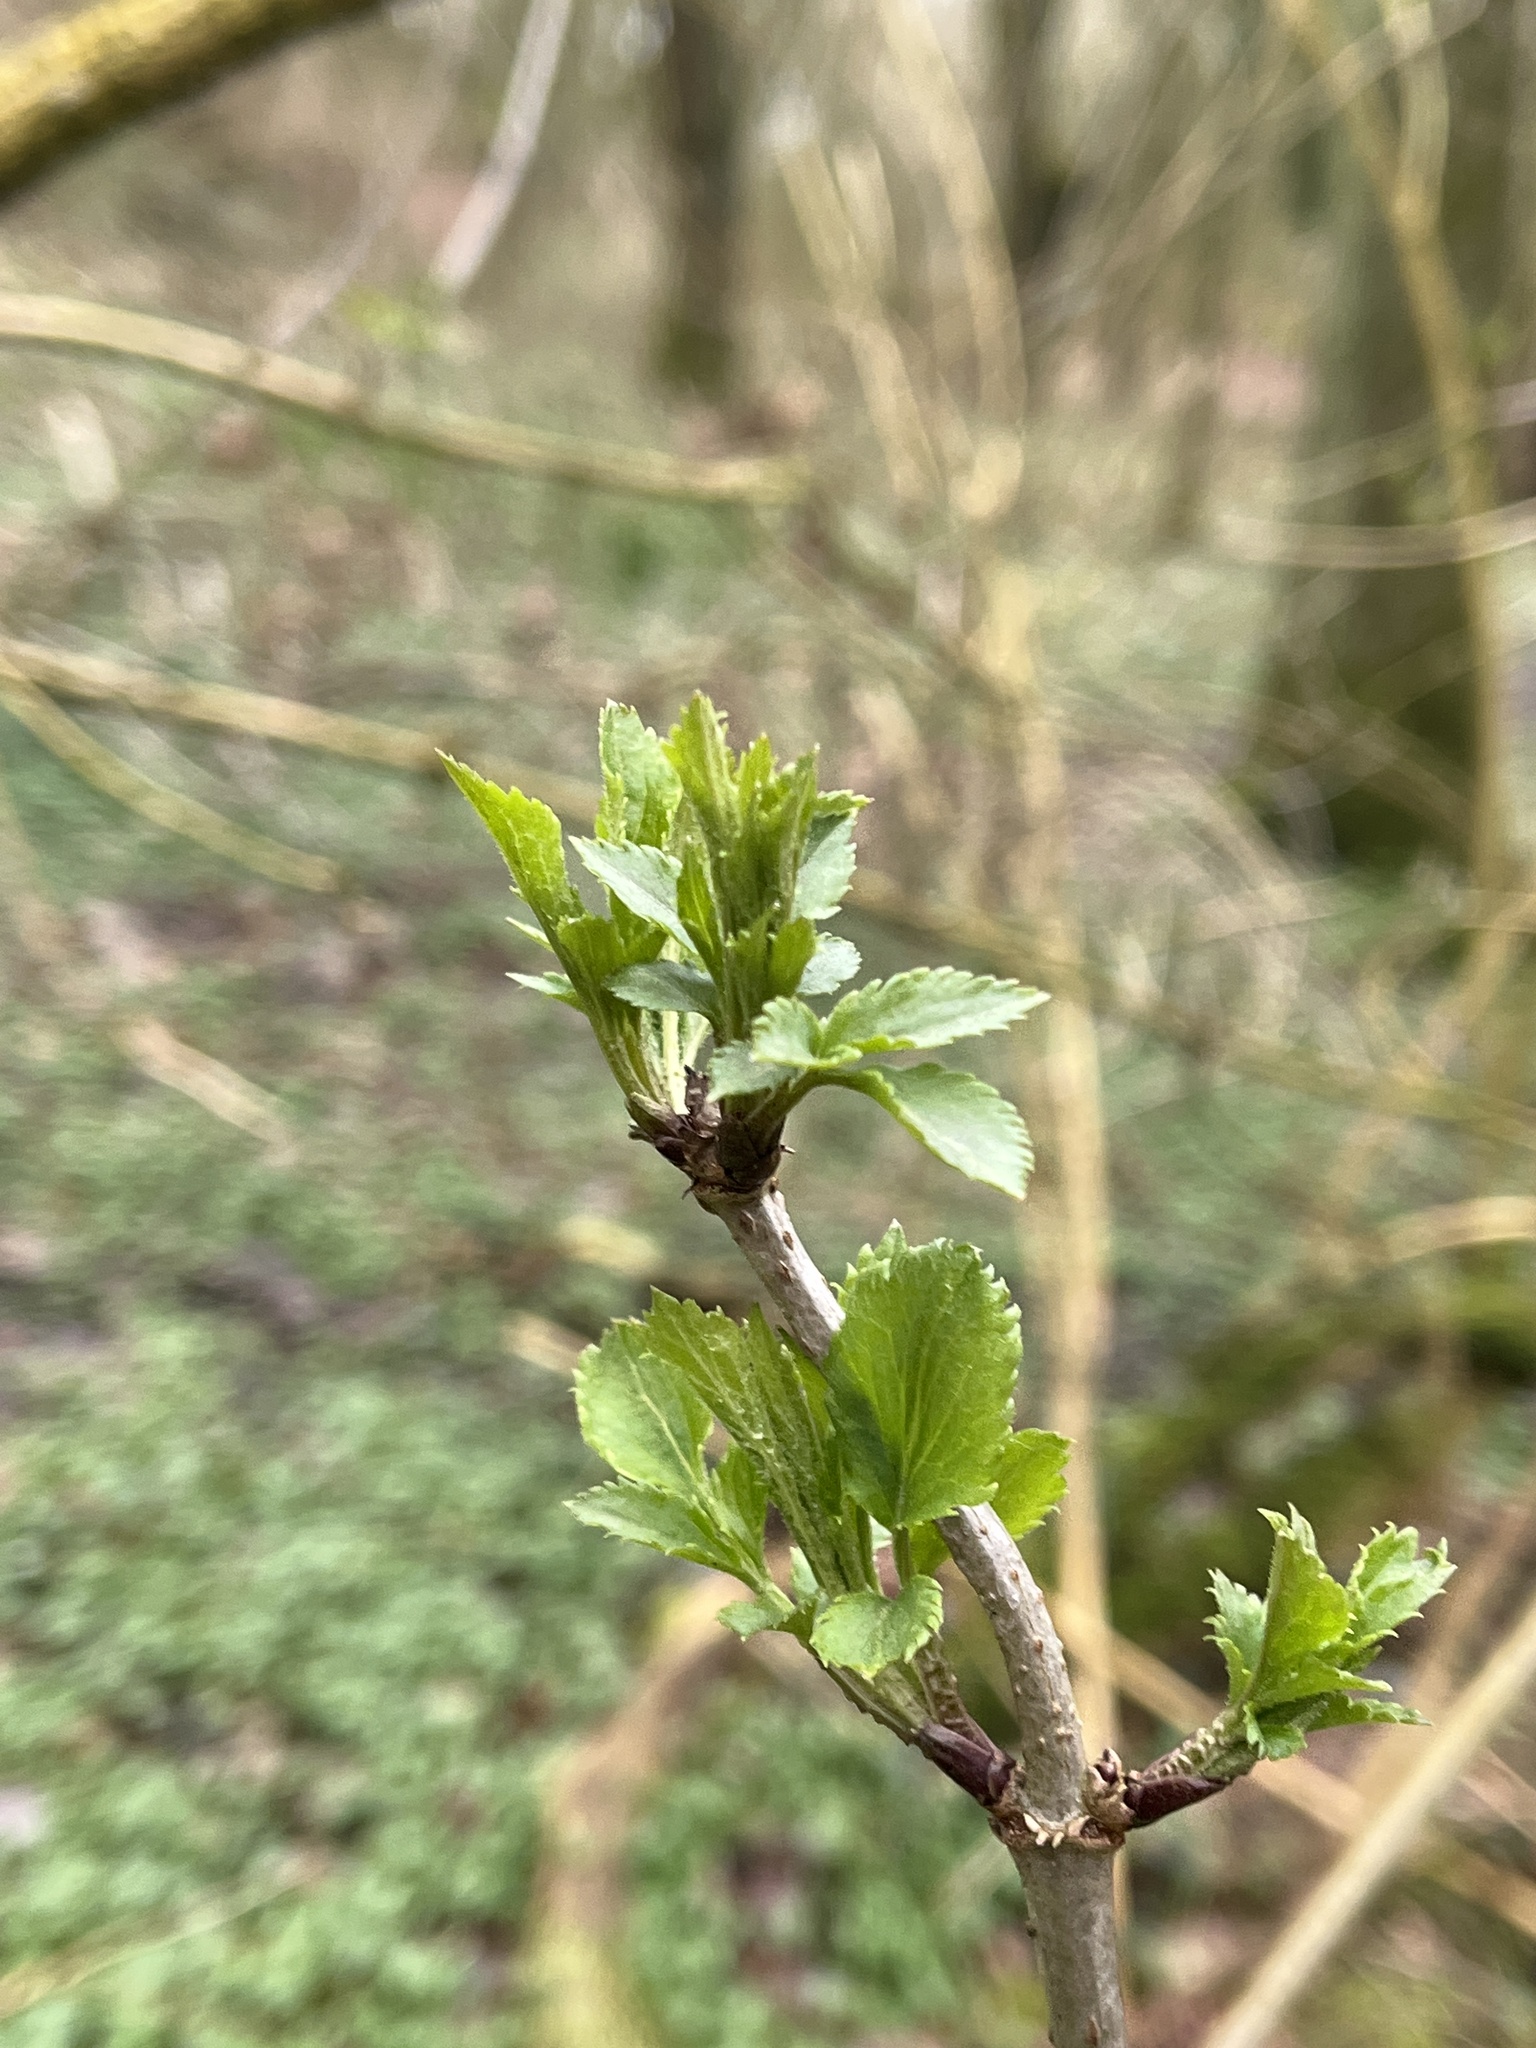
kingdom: Plantae
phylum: Tracheophyta
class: Magnoliopsida
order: Dipsacales
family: Viburnaceae
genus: Sambucus
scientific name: Sambucus nigra
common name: Elder
